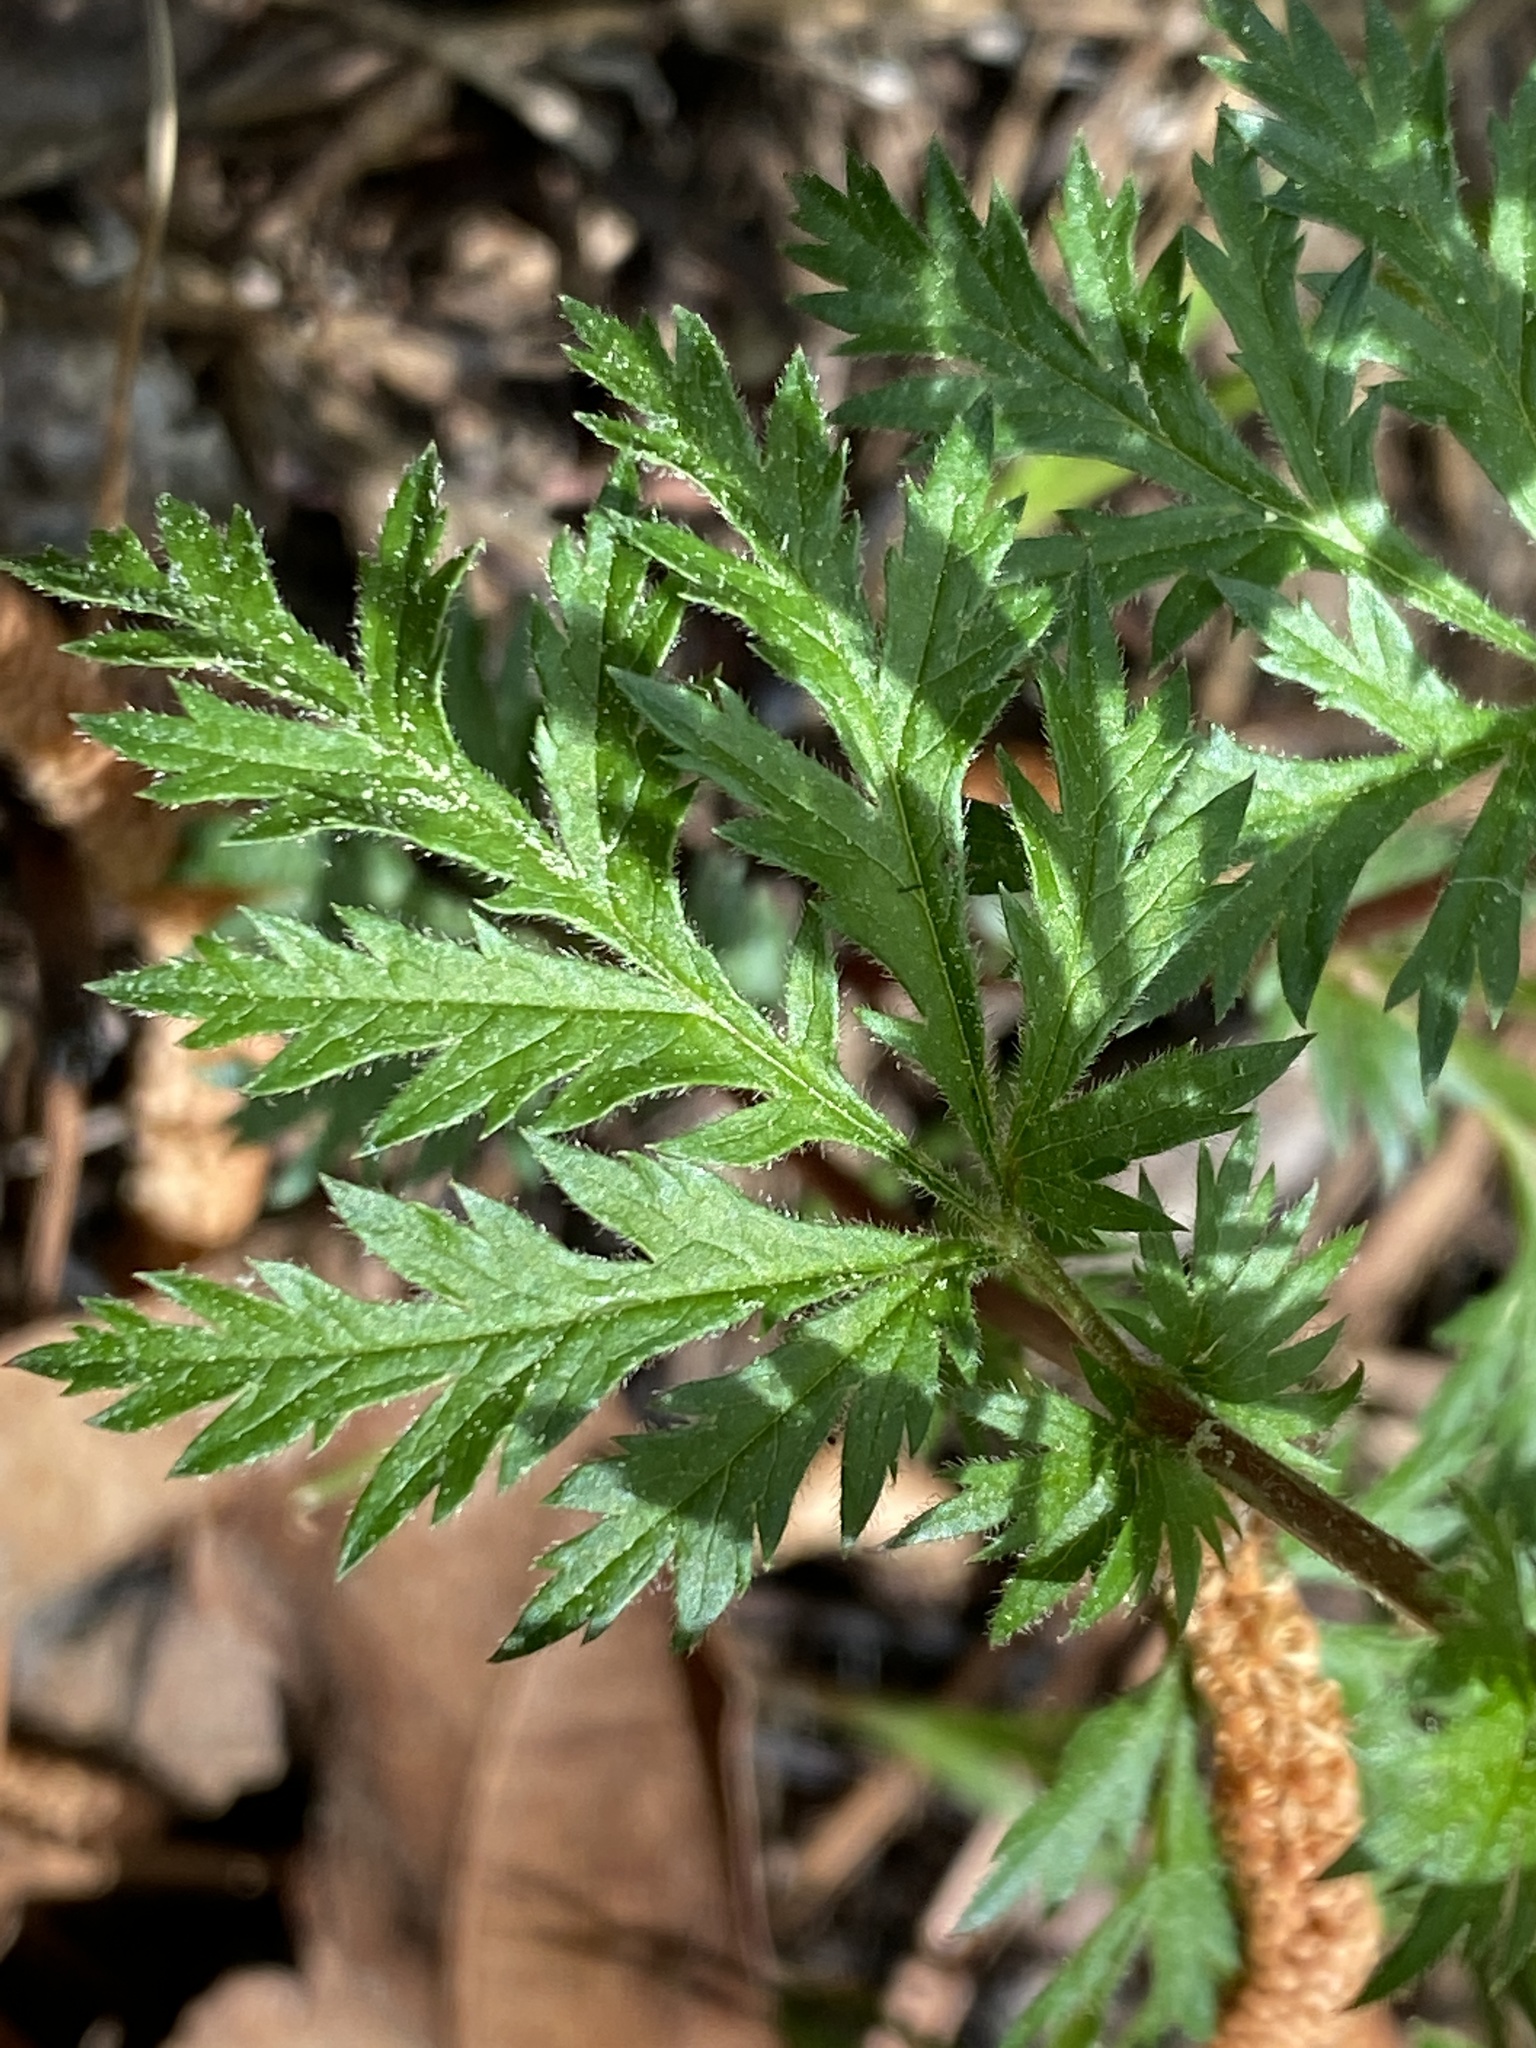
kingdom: Plantae
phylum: Tracheophyta
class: Magnoliopsida
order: Rosales
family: Rosaceae
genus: Gillenia
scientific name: Gillenia stipulata
